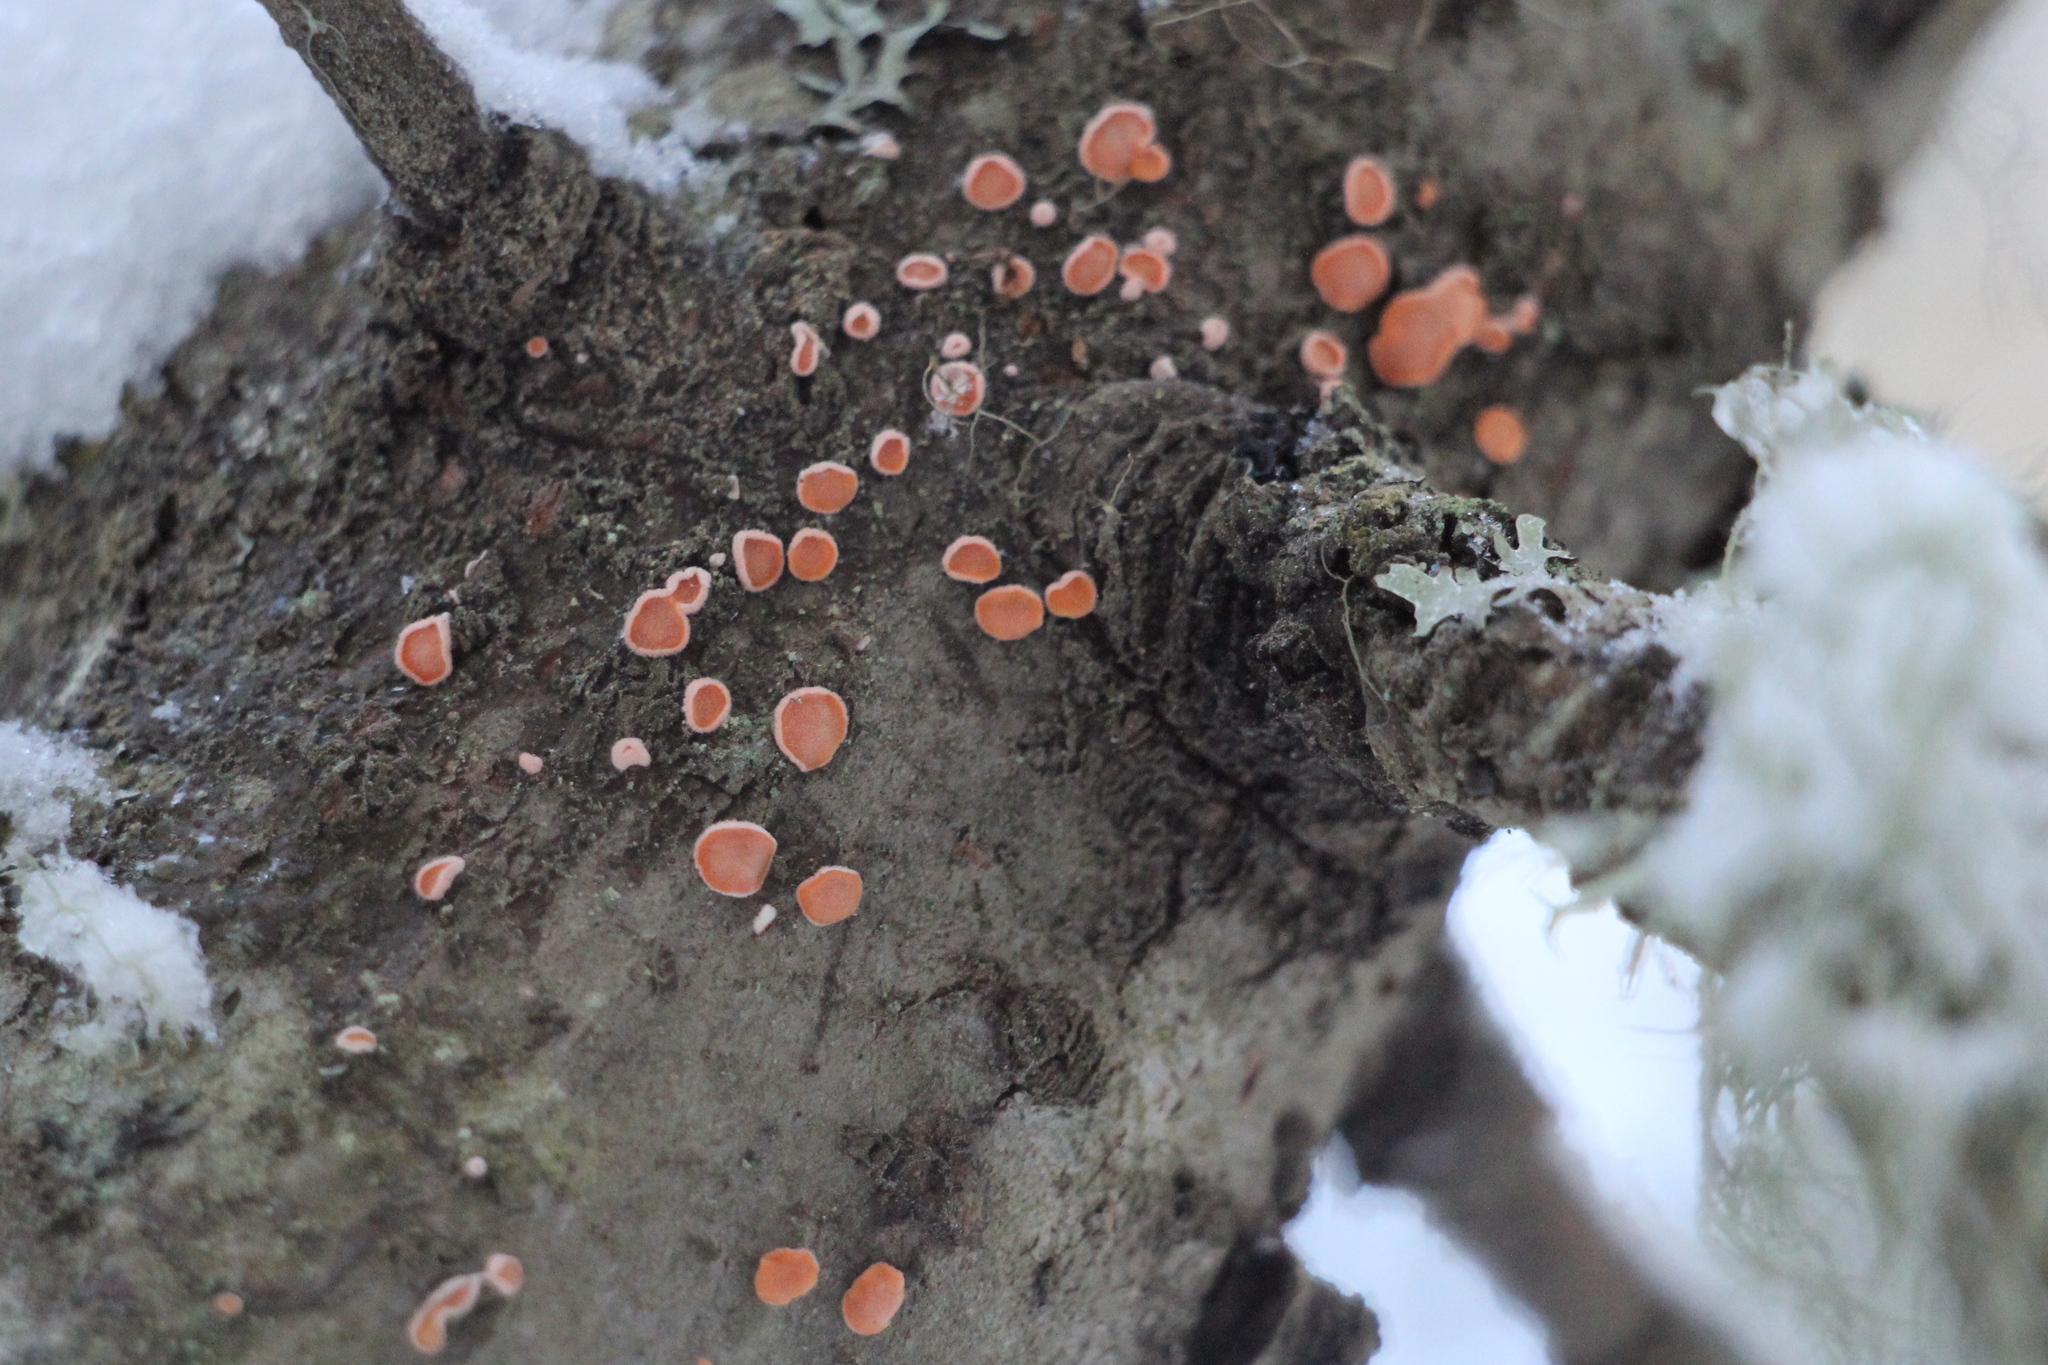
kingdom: Fungi
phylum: Basidiomycota
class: Agaricomycetes
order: Russulales
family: Stereaceae
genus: Aleurodiscus
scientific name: Aleurodiscus amorphus
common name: Orange discus
